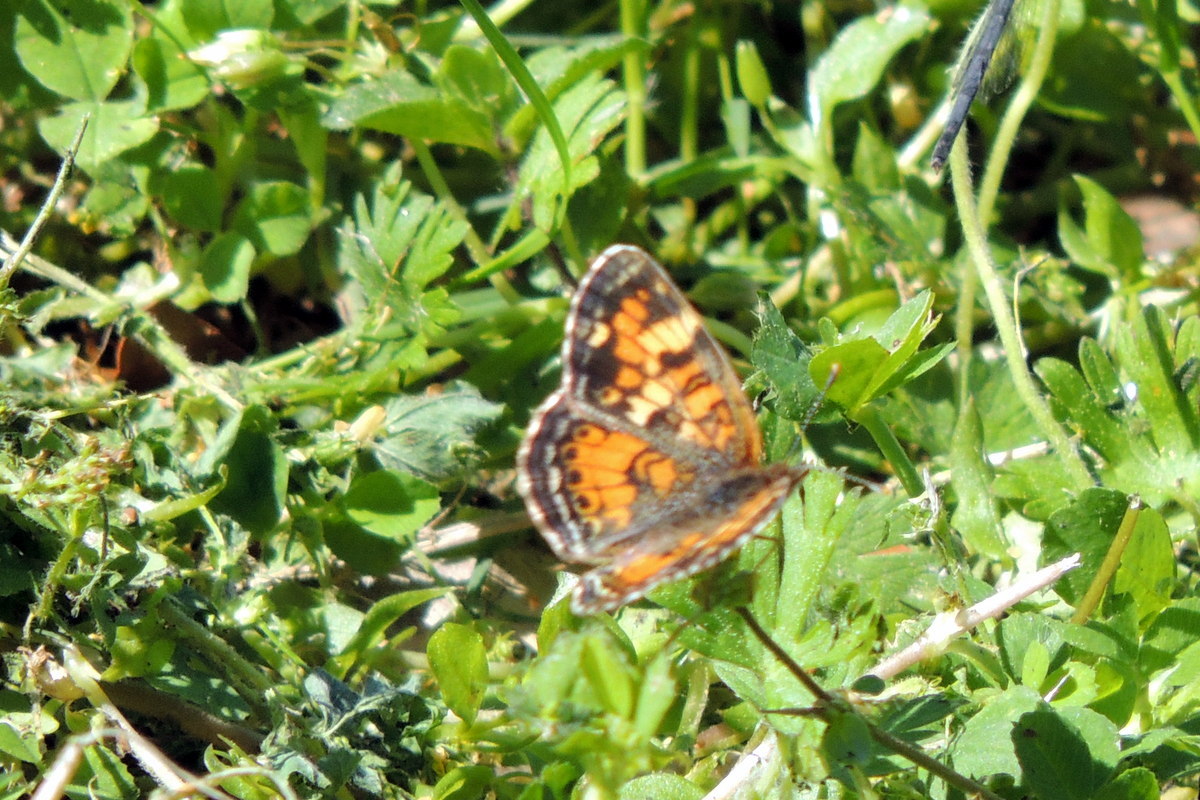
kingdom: Animalia
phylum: Arthropoda
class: Insecta
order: Lepidoptera
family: Nymphalidae
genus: Phyciodes
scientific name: Phyciodes phaon
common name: Phaon crescent
